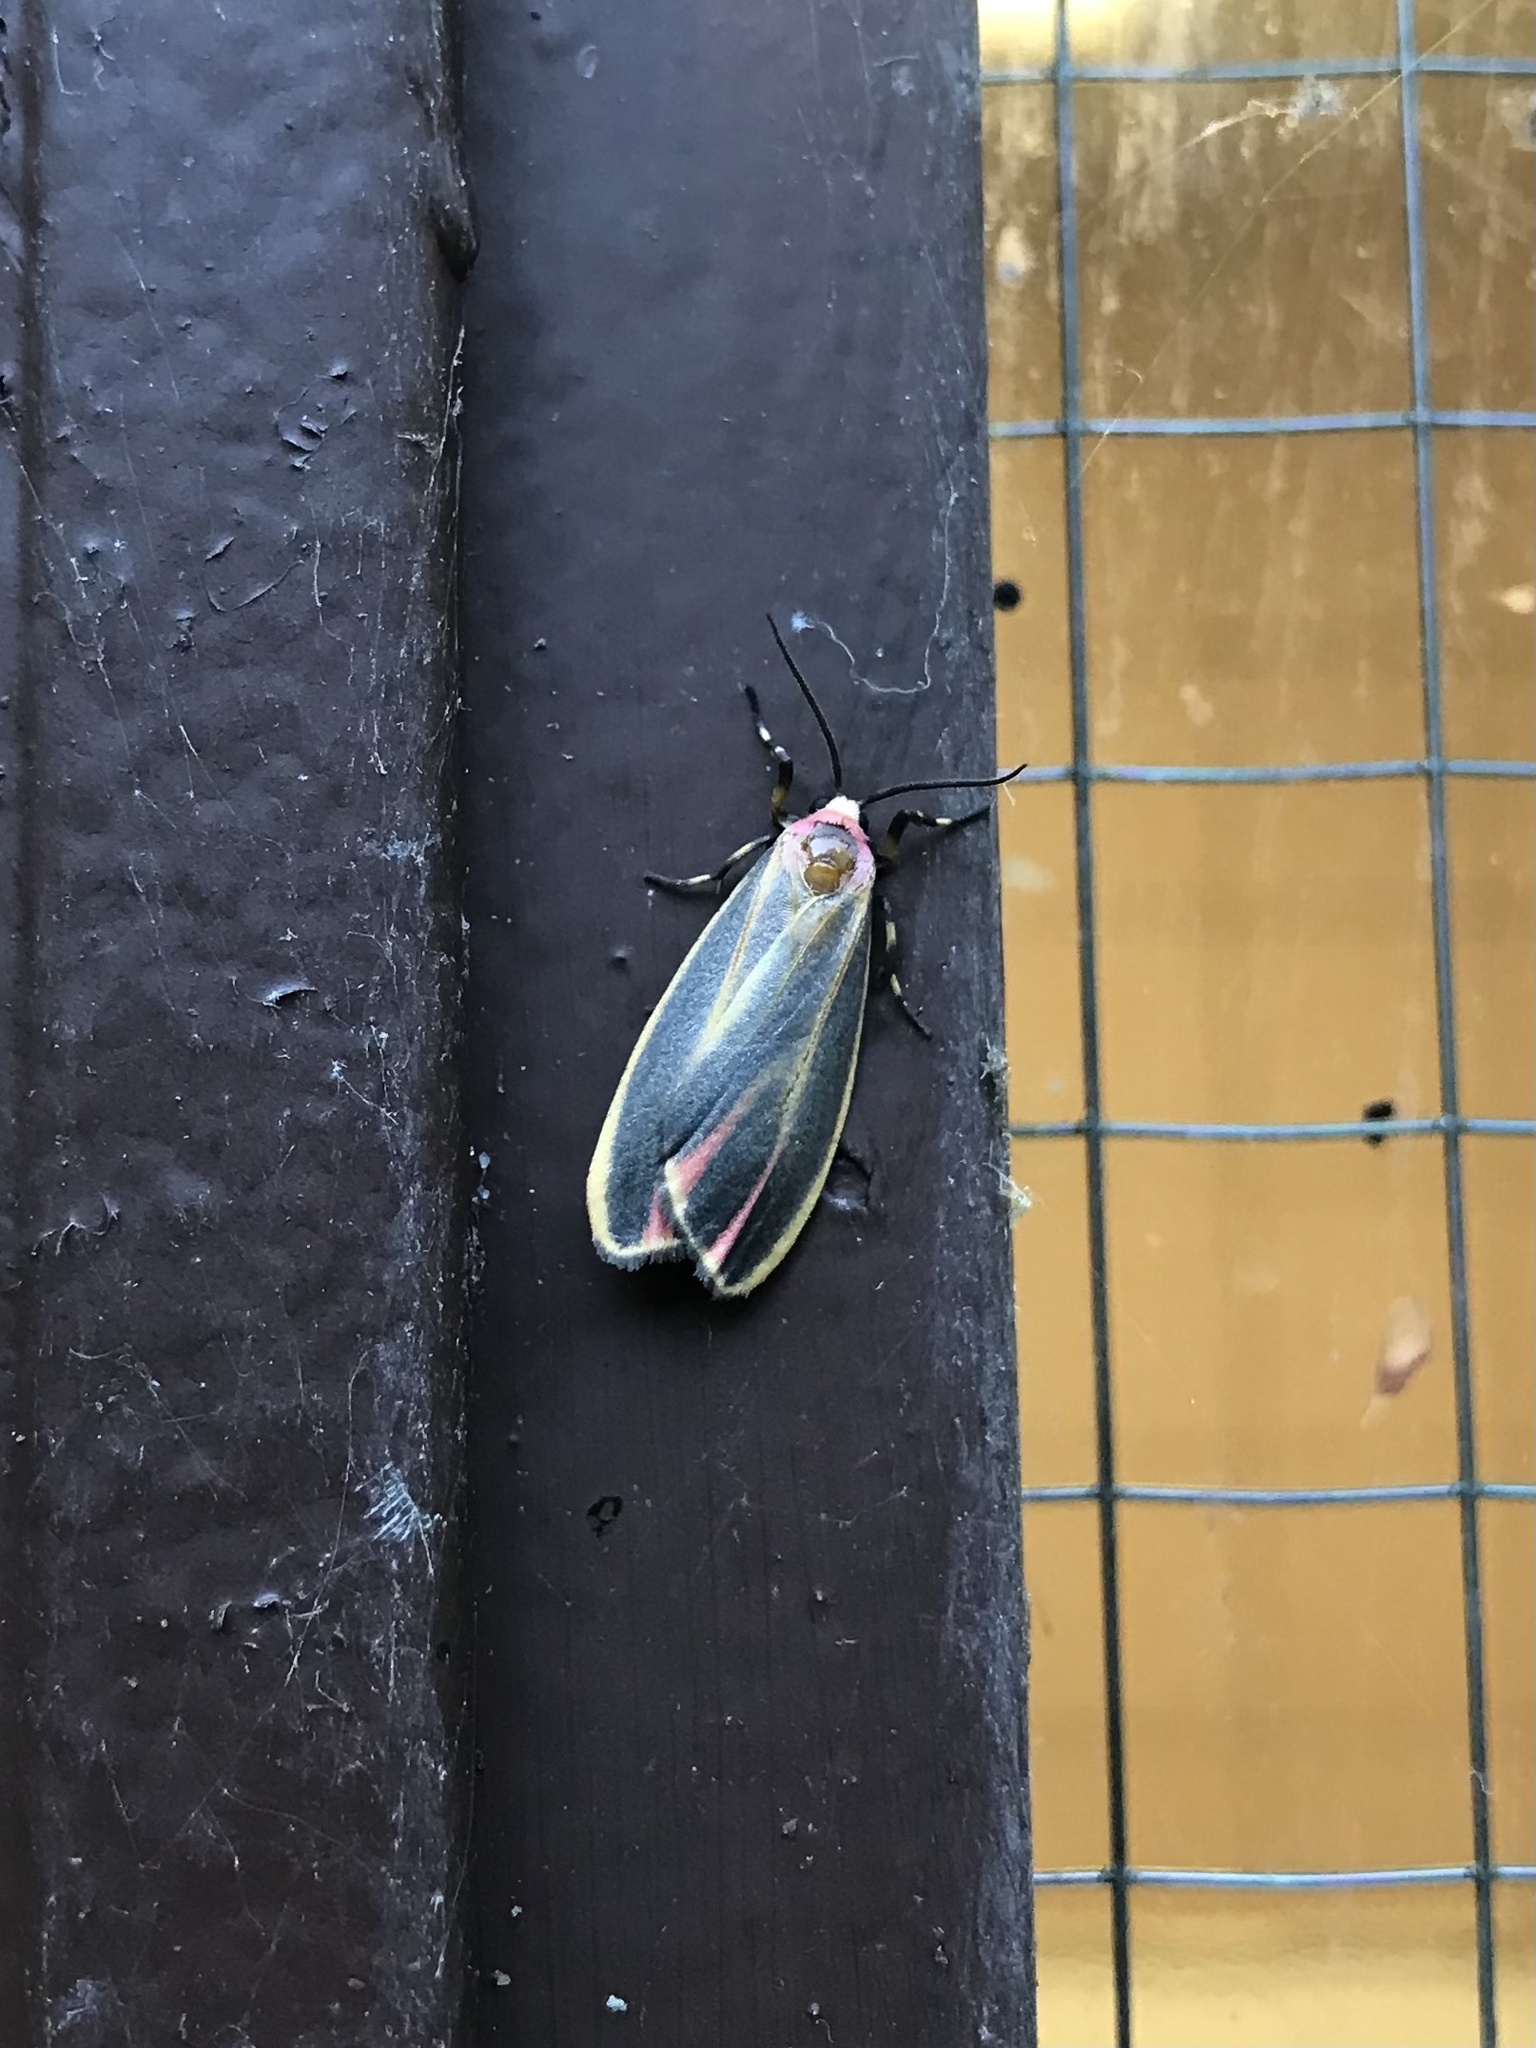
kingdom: Animalia
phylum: Arthropoda
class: Insecta
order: Lepidoptera
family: Erebidae
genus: Hypoprepia
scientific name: Hypoprepia fucosa
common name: Painted lichen moth
